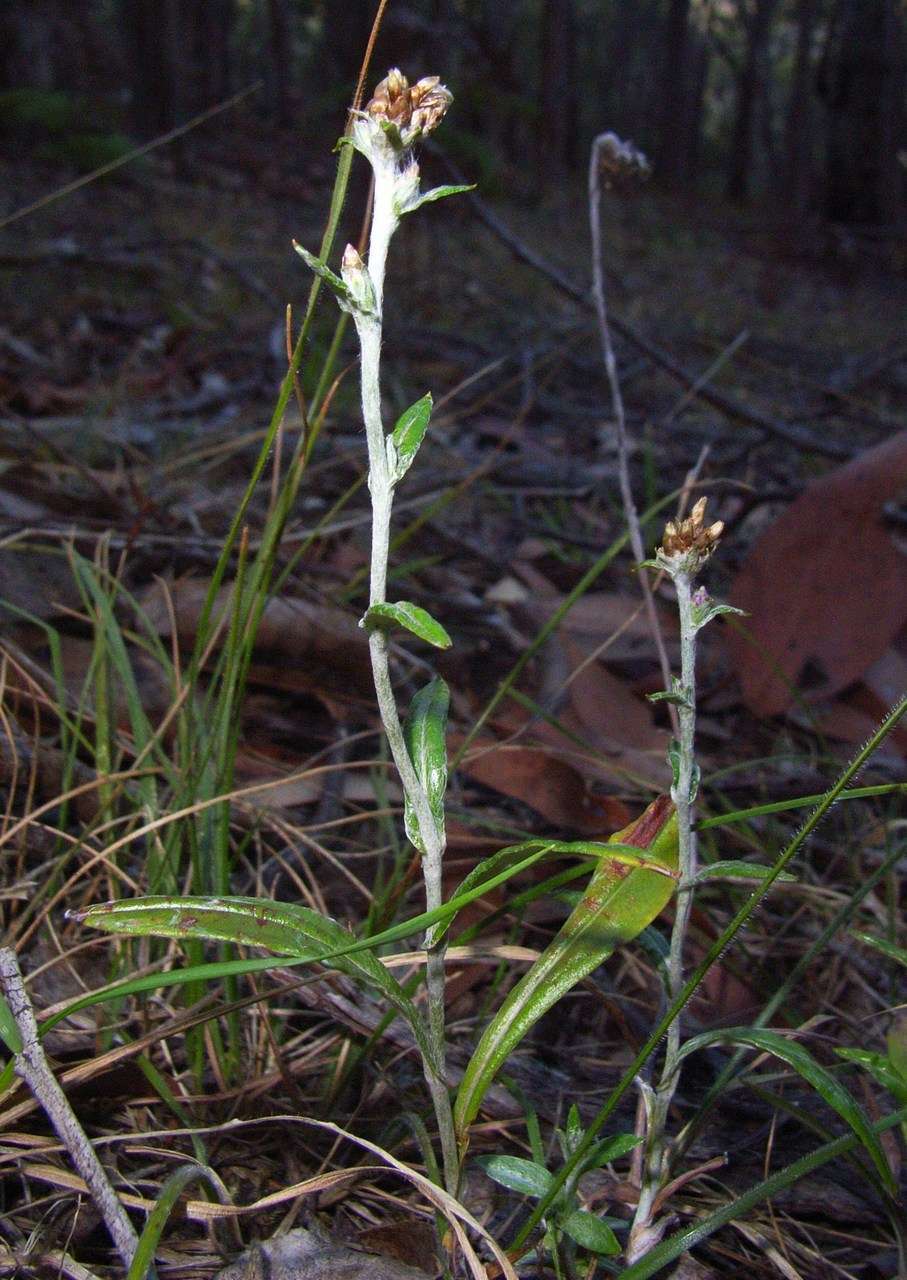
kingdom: Plantae
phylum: Tracheophyta
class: Magnoliopsida
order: Asterales
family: Asteraceae
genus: Euchiton
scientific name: Euchiton japonicus
